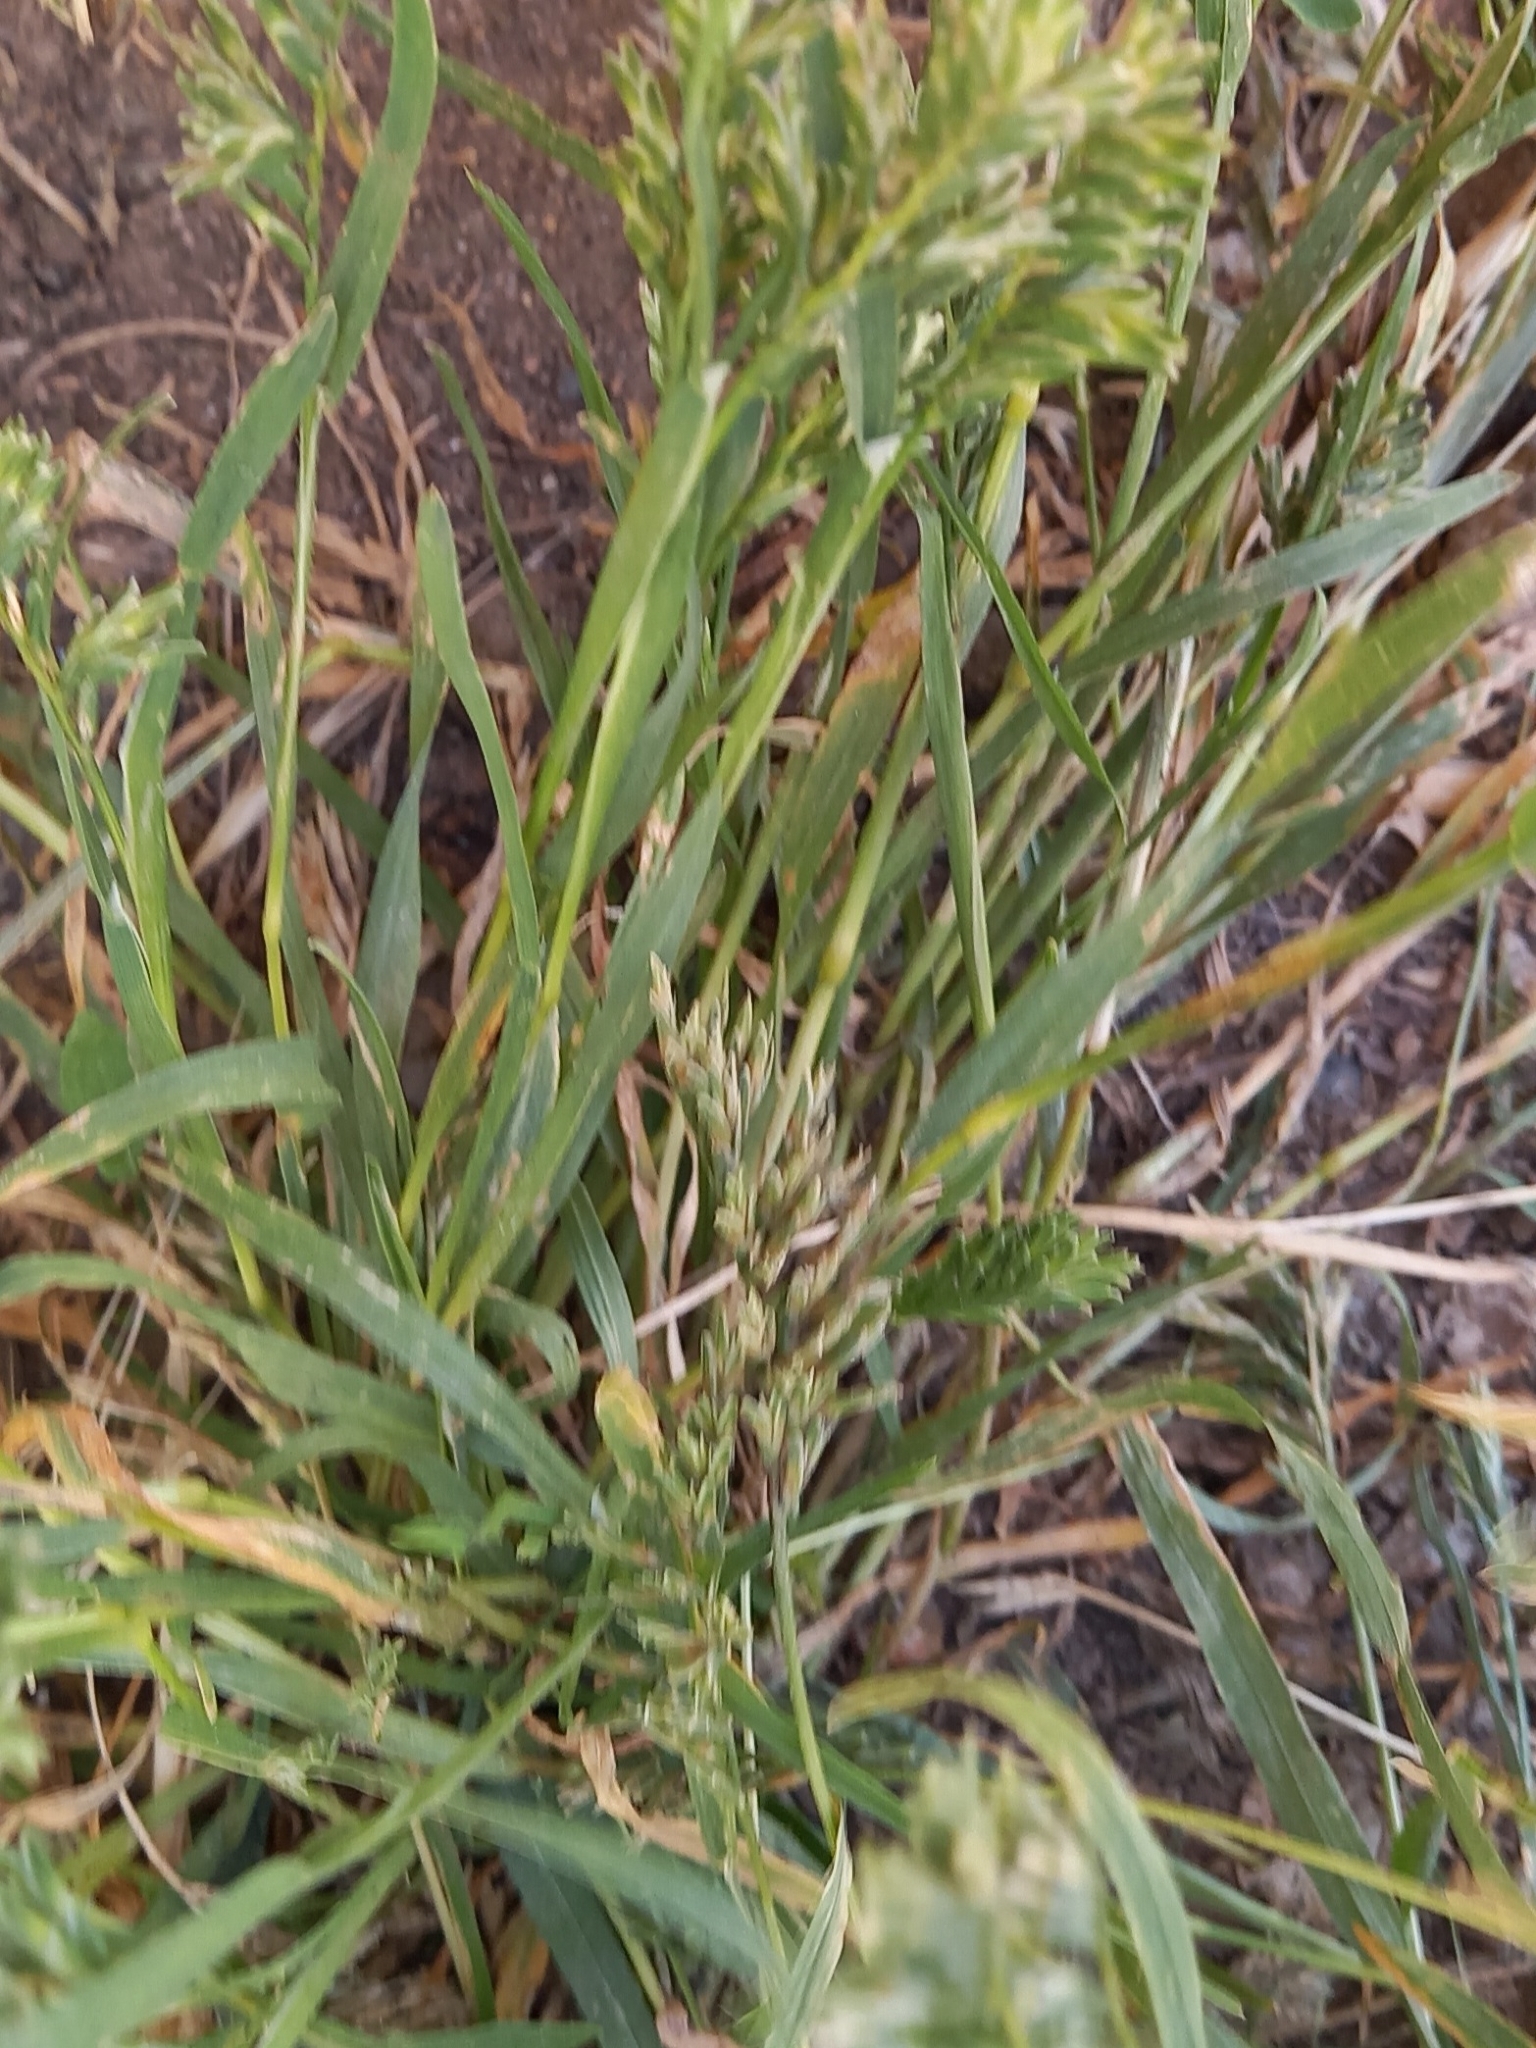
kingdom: Plantae
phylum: Tracheophyta
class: Liliopsida
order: Poales
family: Poaceae
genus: Sclerochloa
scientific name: Sclerochloa dura
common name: Common hardgrass
